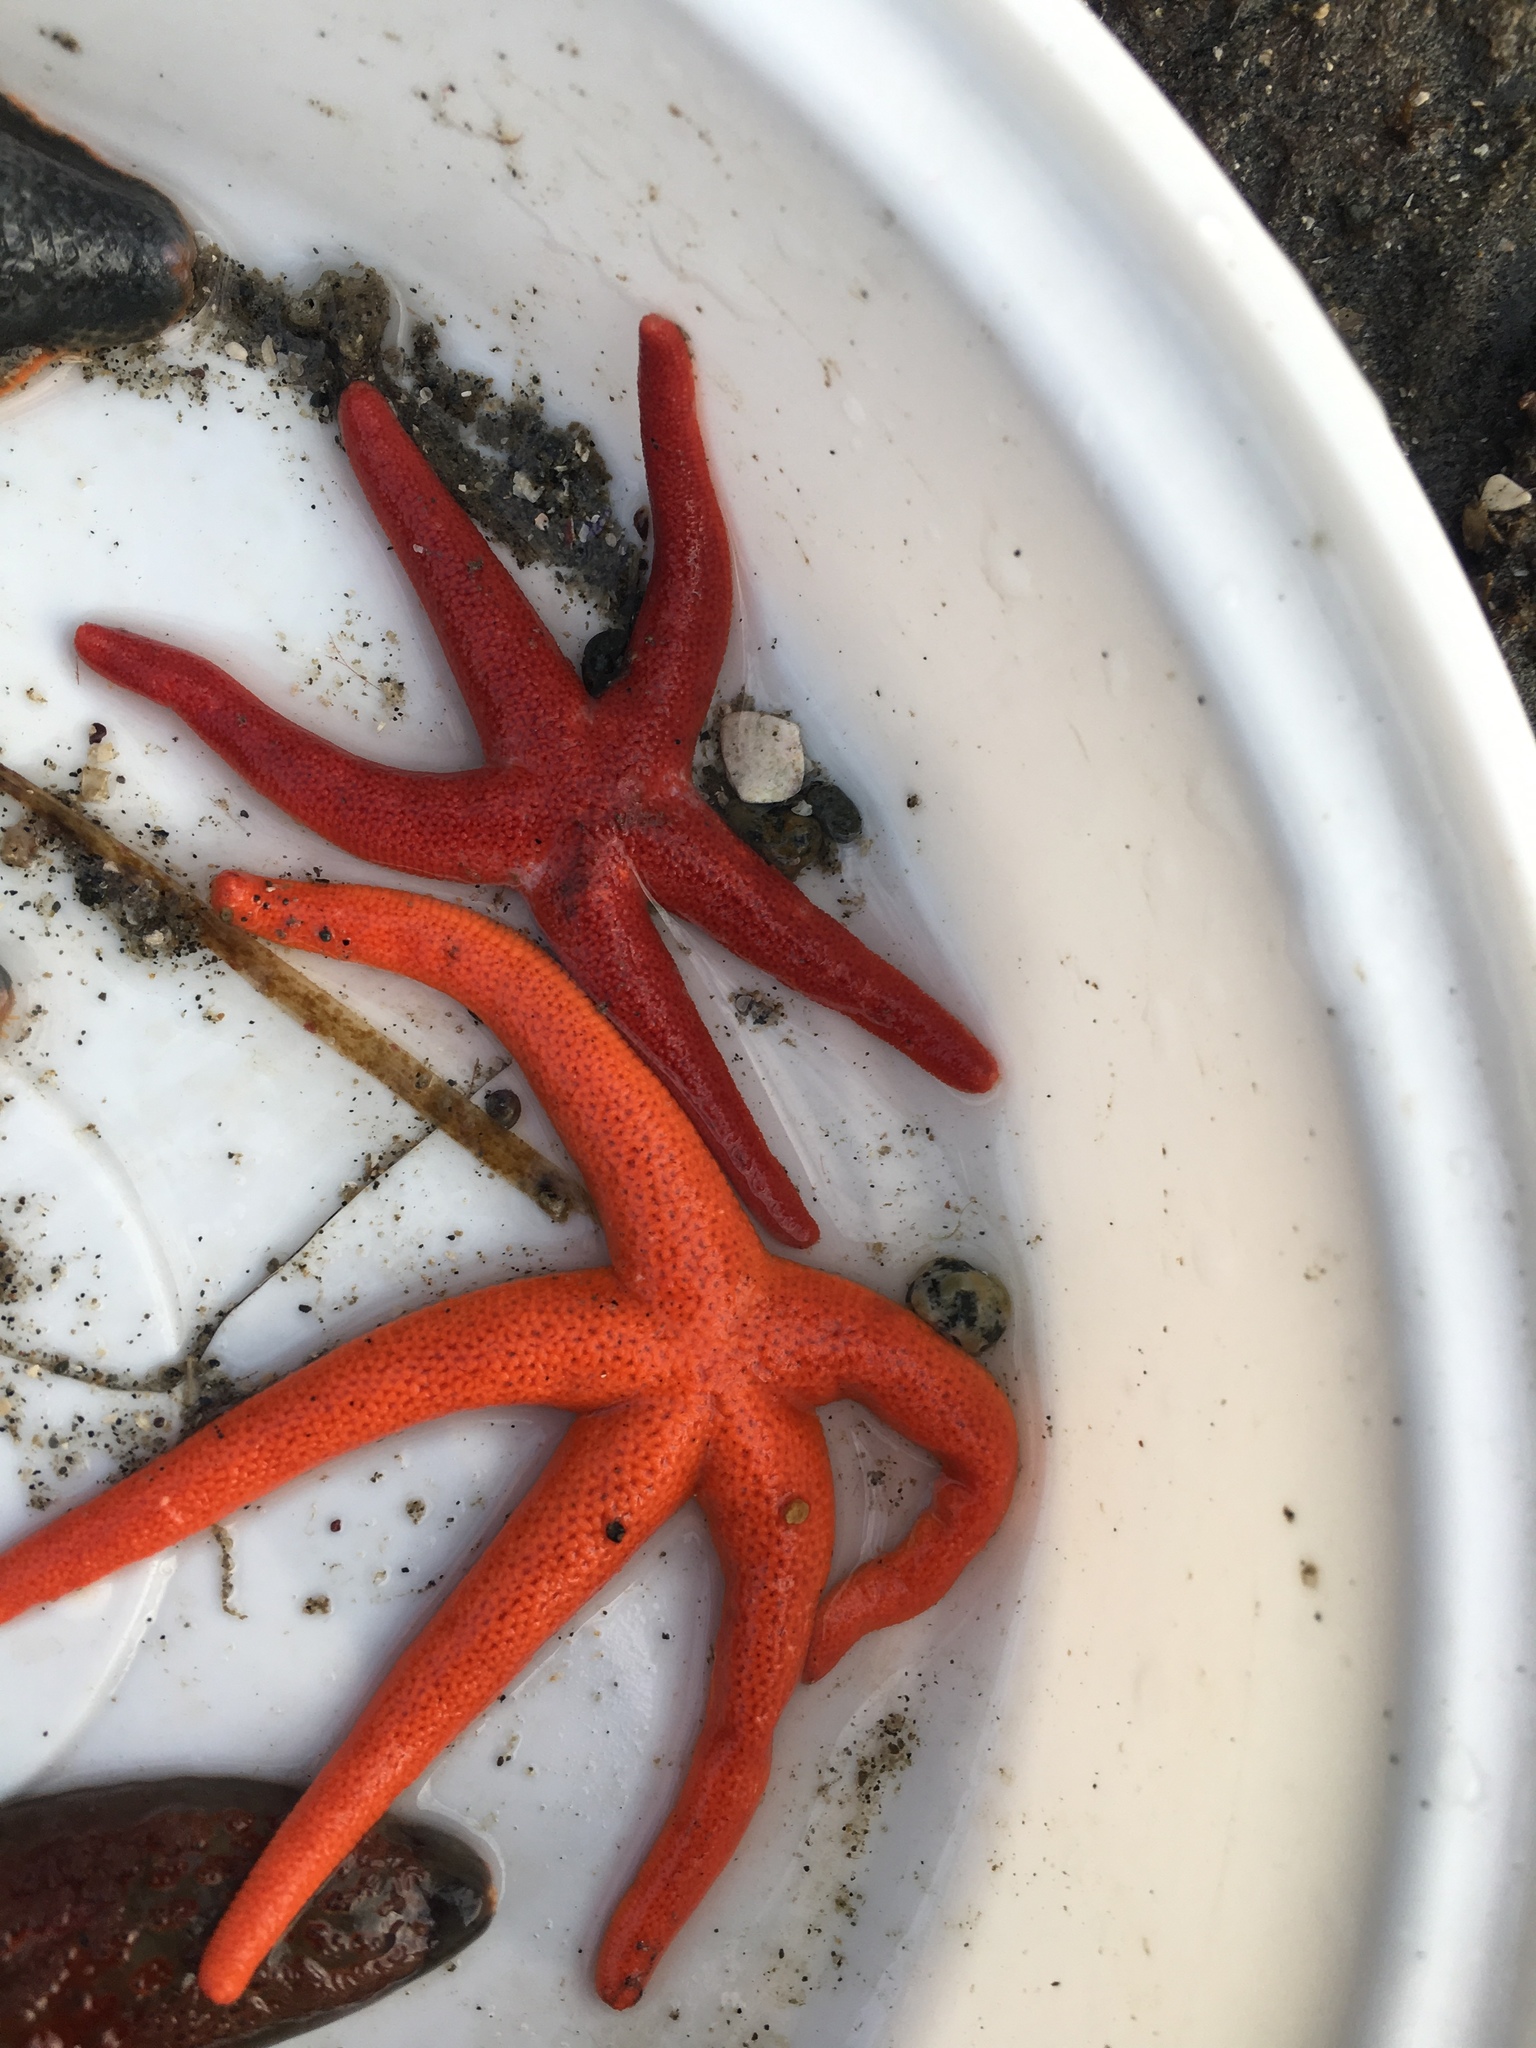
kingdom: Animalia
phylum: Echinodermata
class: Asteroidea
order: Spinulosida
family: Echinasteridae
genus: Henricia
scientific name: Henricia
